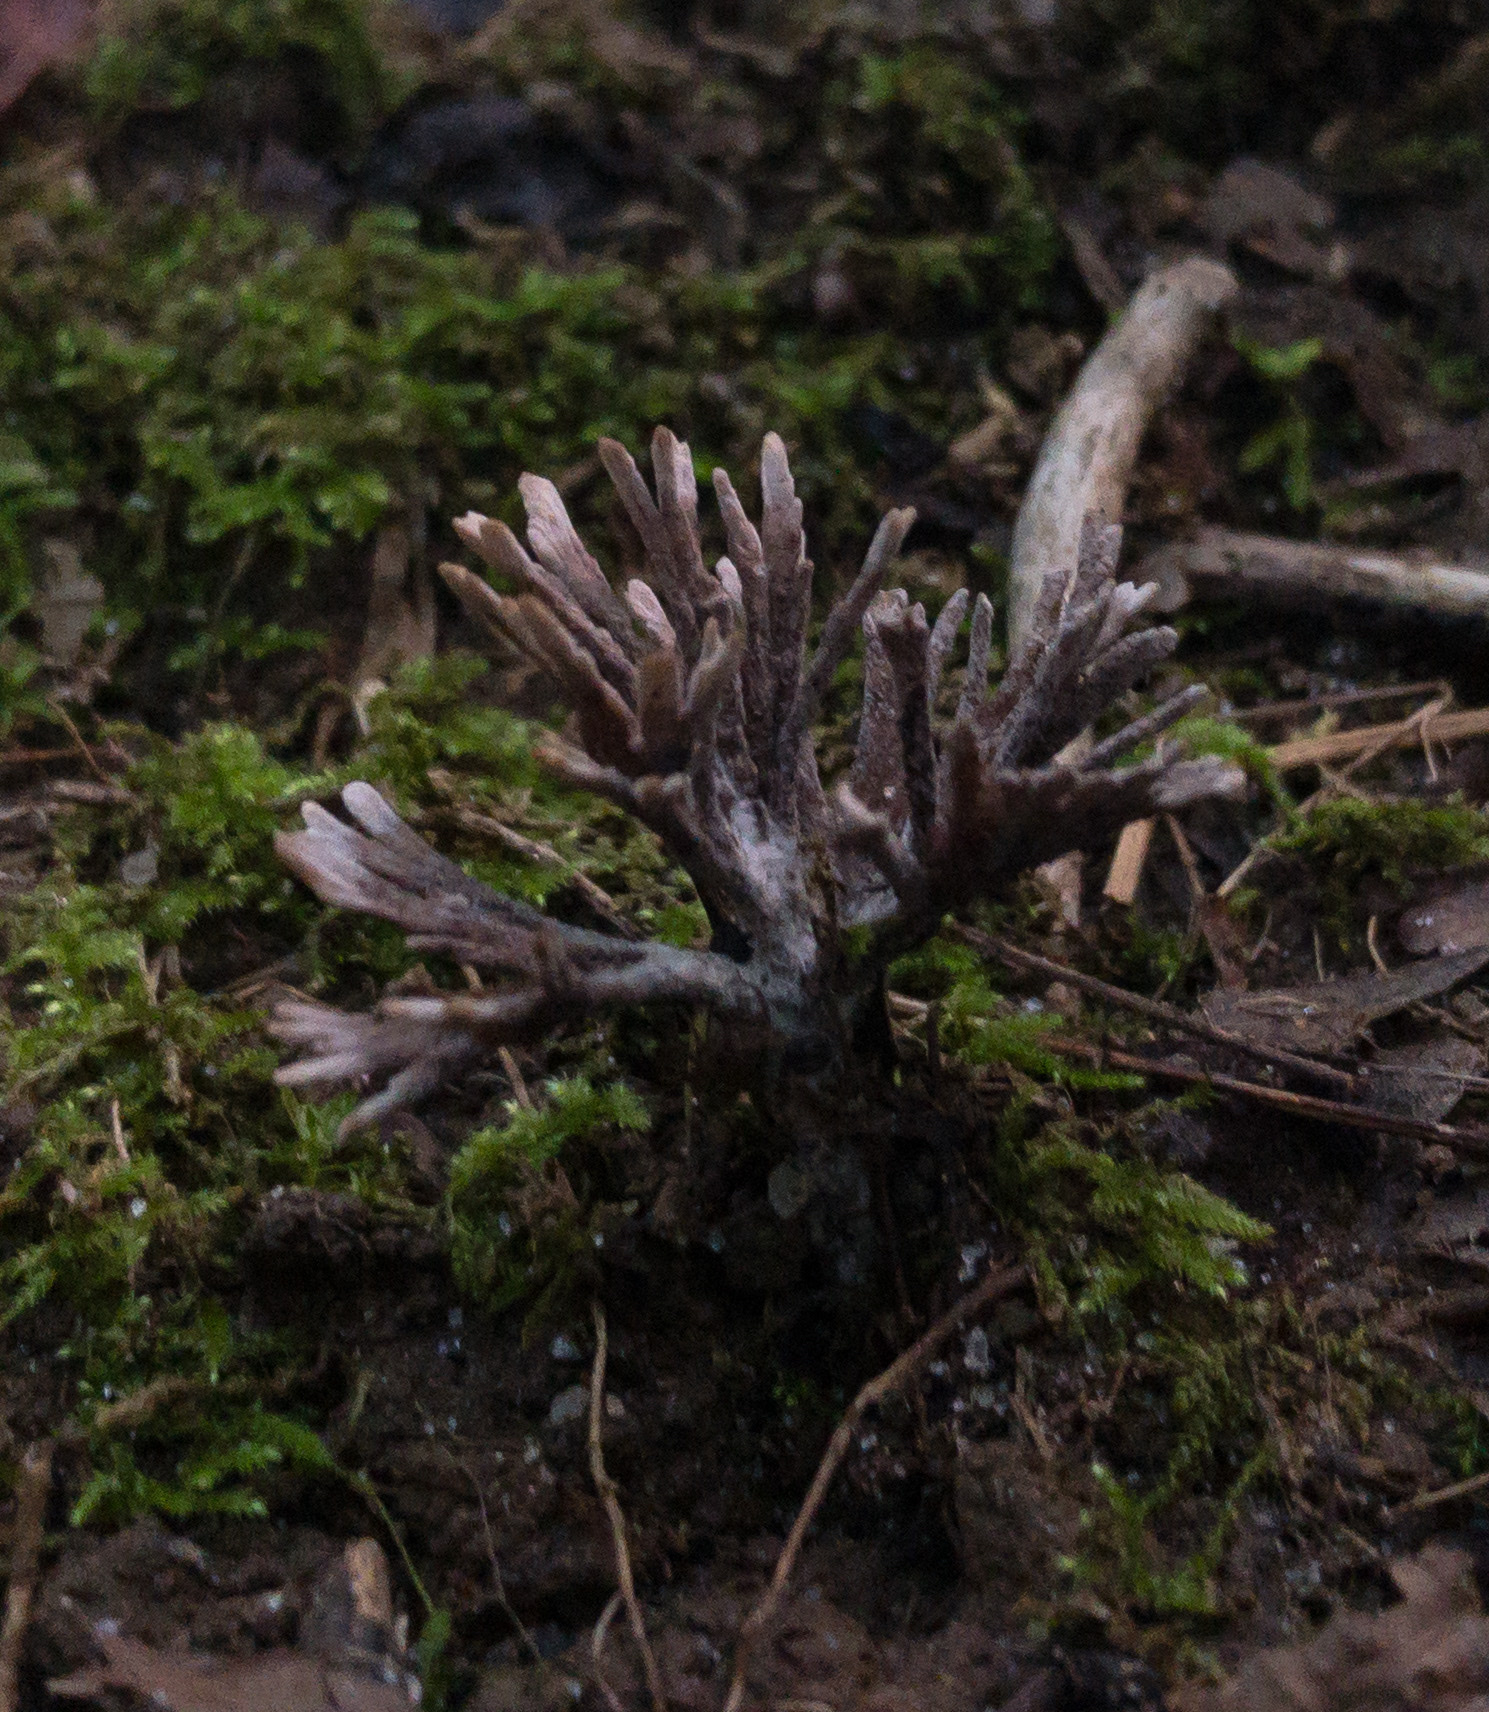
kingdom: Fungi
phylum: Basidiomycota
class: Agaricomycetes
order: Thelephorales
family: Thelephoraceae
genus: Thelephora
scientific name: Thelephora palmata
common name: Stinking earthfan
